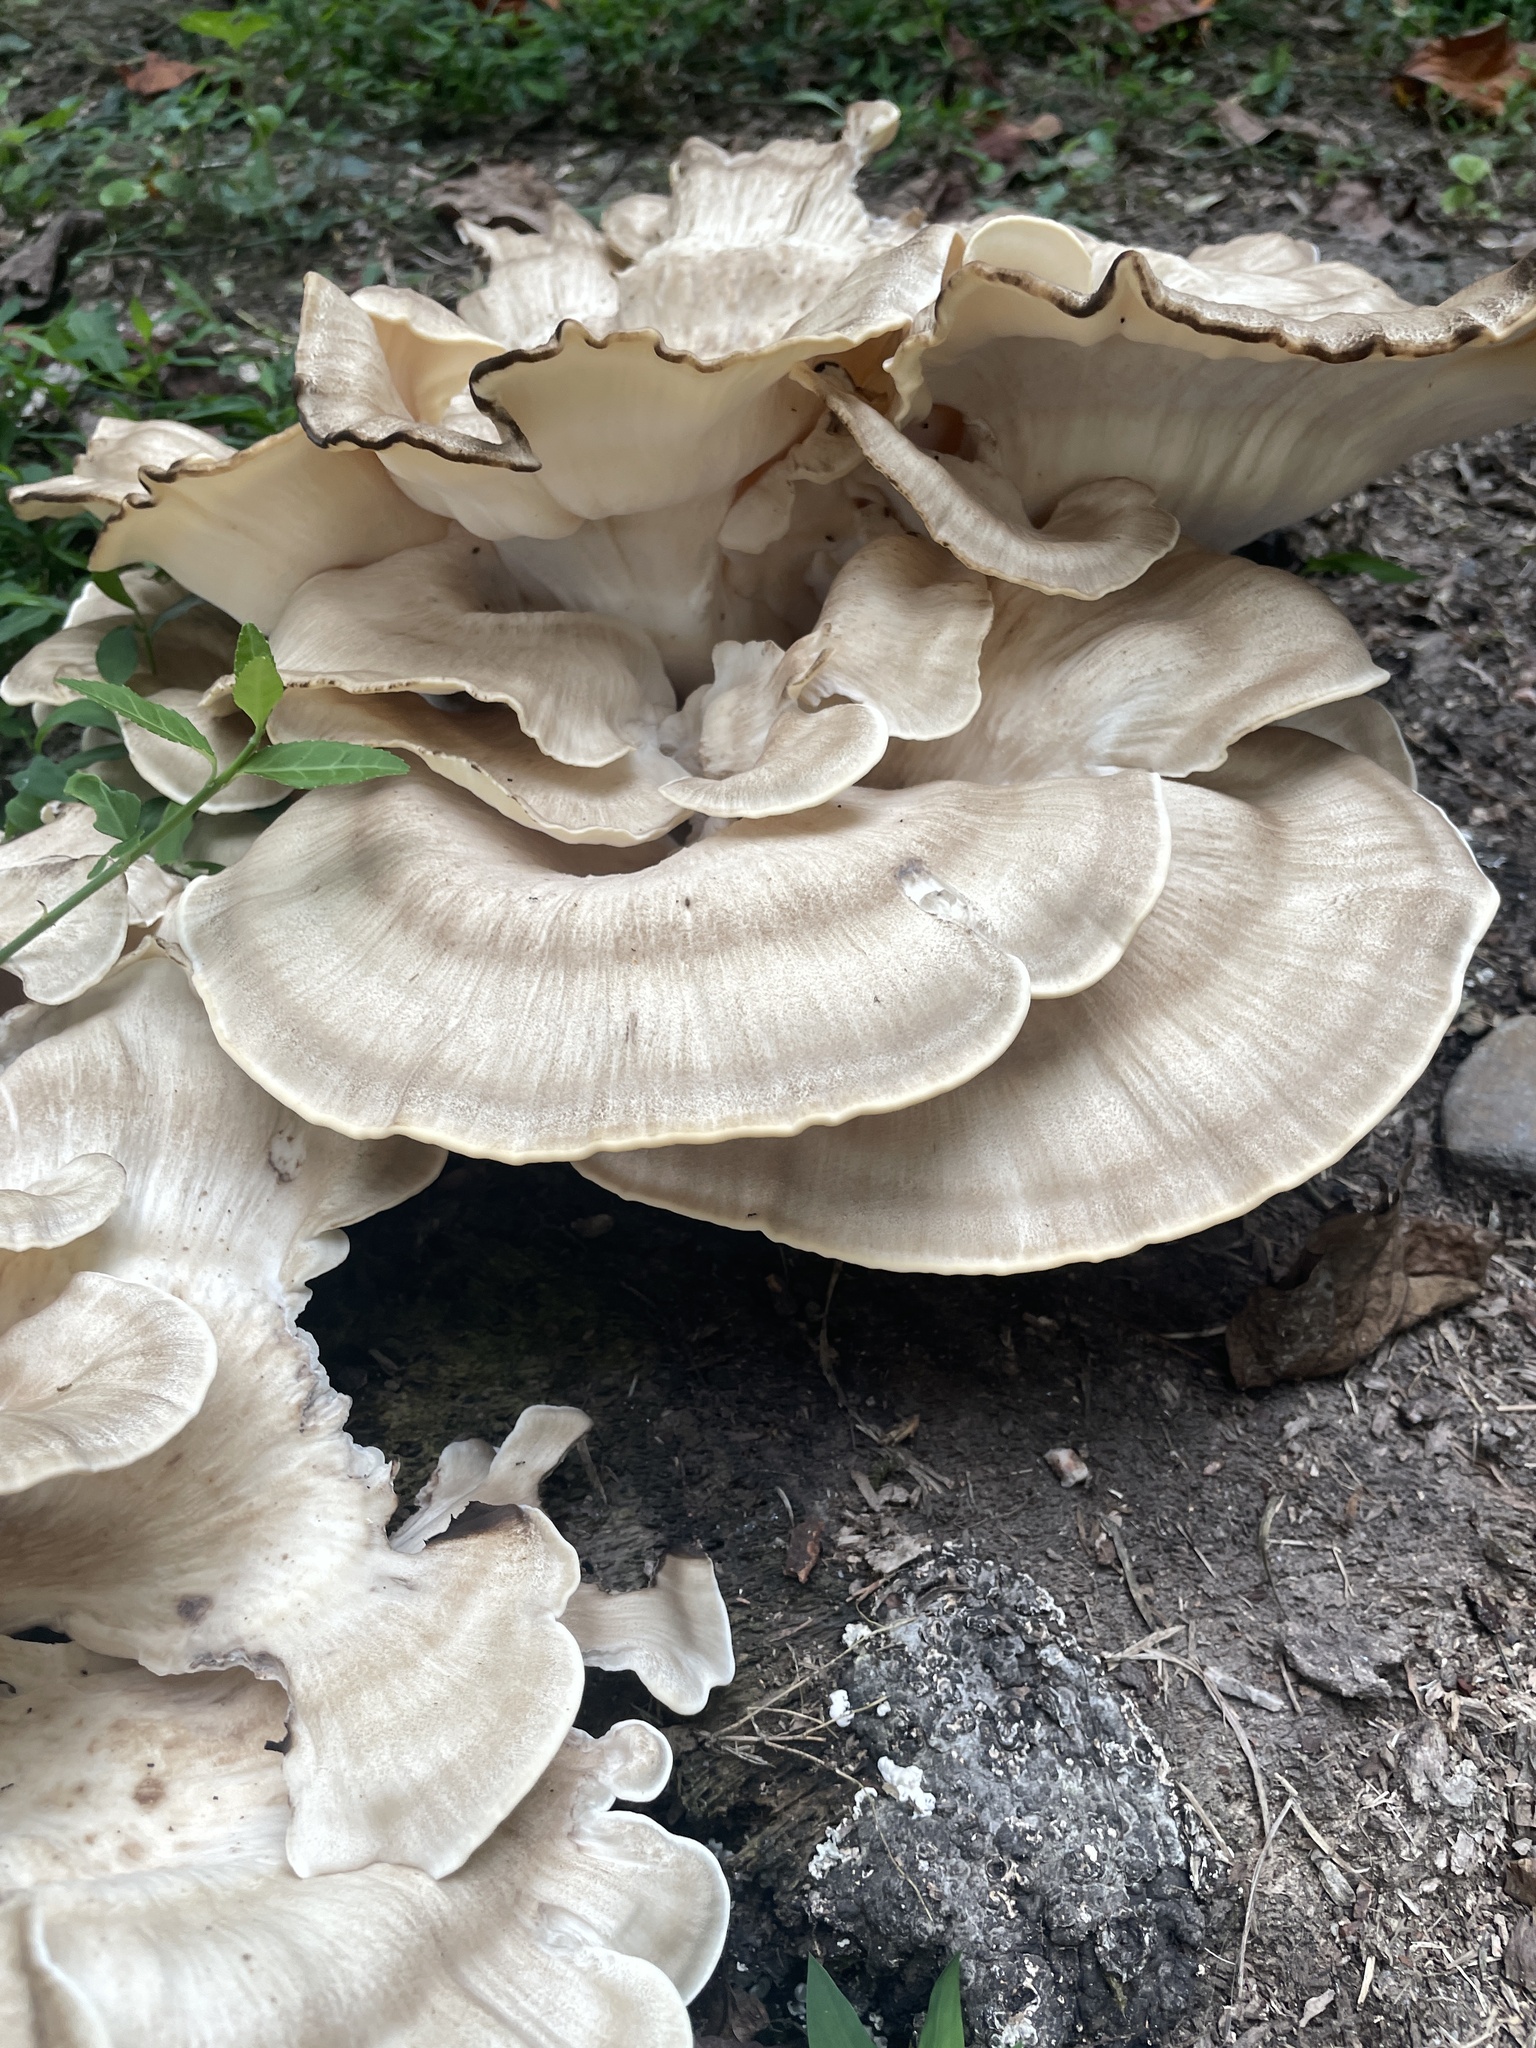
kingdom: Fungi
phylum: Basidiomycota
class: Agaricomycetes
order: Polyporales
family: Meripilaceae
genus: Meripilus
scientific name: Meripilus sumstinei
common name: Black-staining polypore
